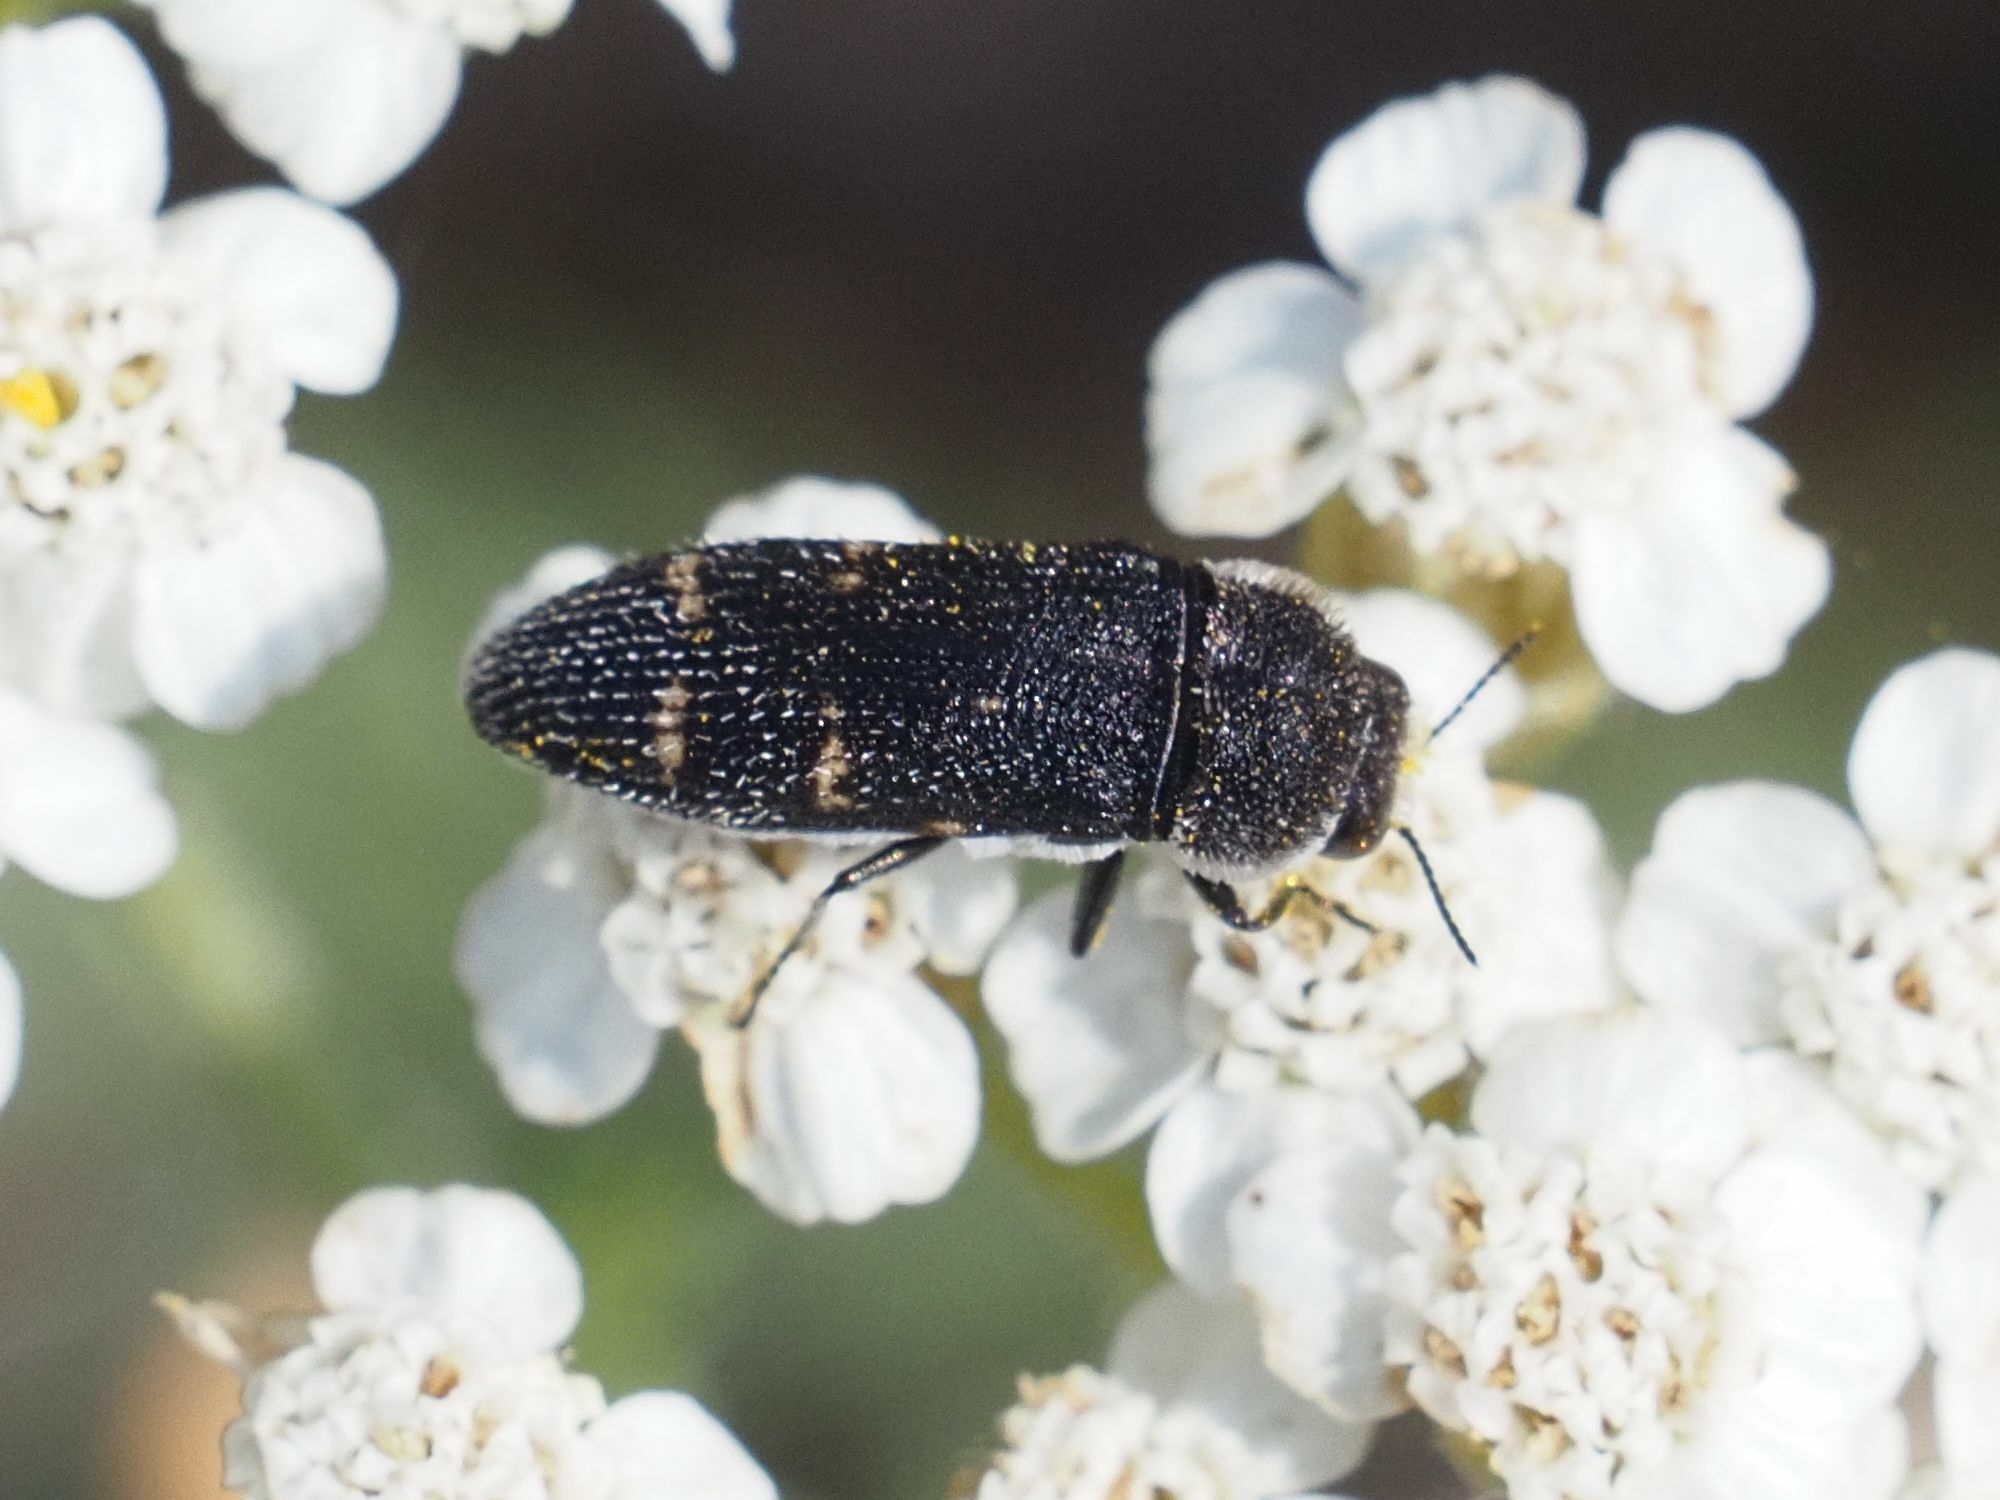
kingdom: Animalia
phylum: Arthropoda
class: Insecta
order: Coleoptera
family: Buprestidae
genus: Acmaeoderella
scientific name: Acmaeoderella flavofasciata
